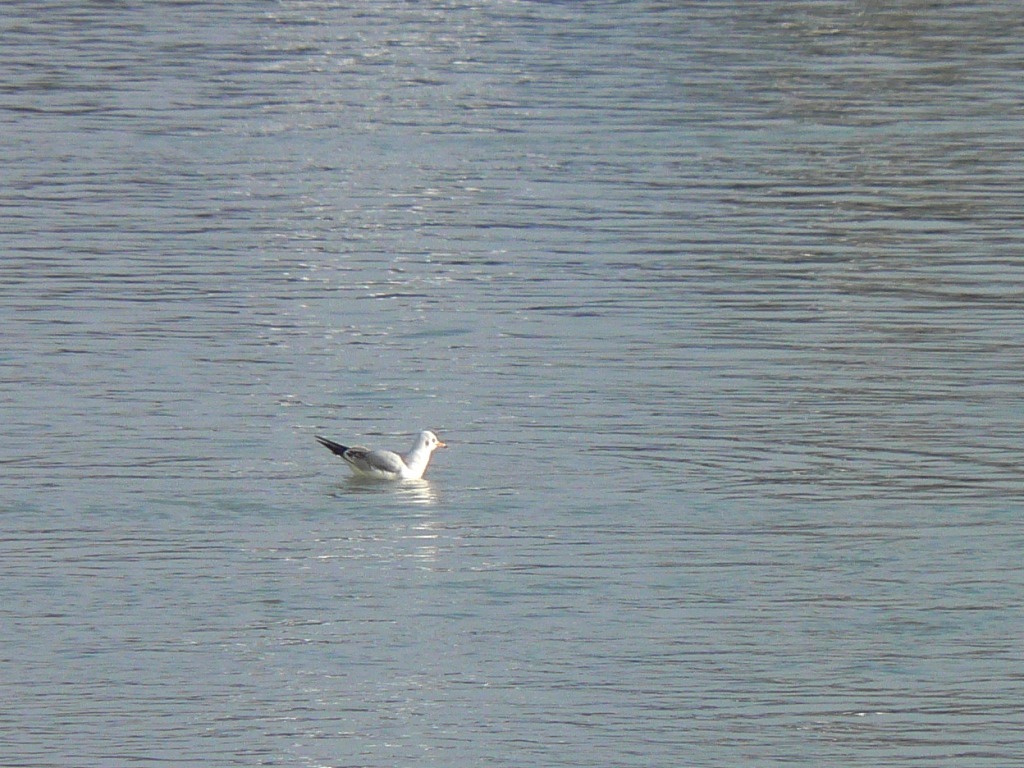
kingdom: Animalia
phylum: Chordata
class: Aves
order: Charadriiformes
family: Laridae
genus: Chroicocephalus
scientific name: Chroicocephalus ridibundus
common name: Black-headed gull
